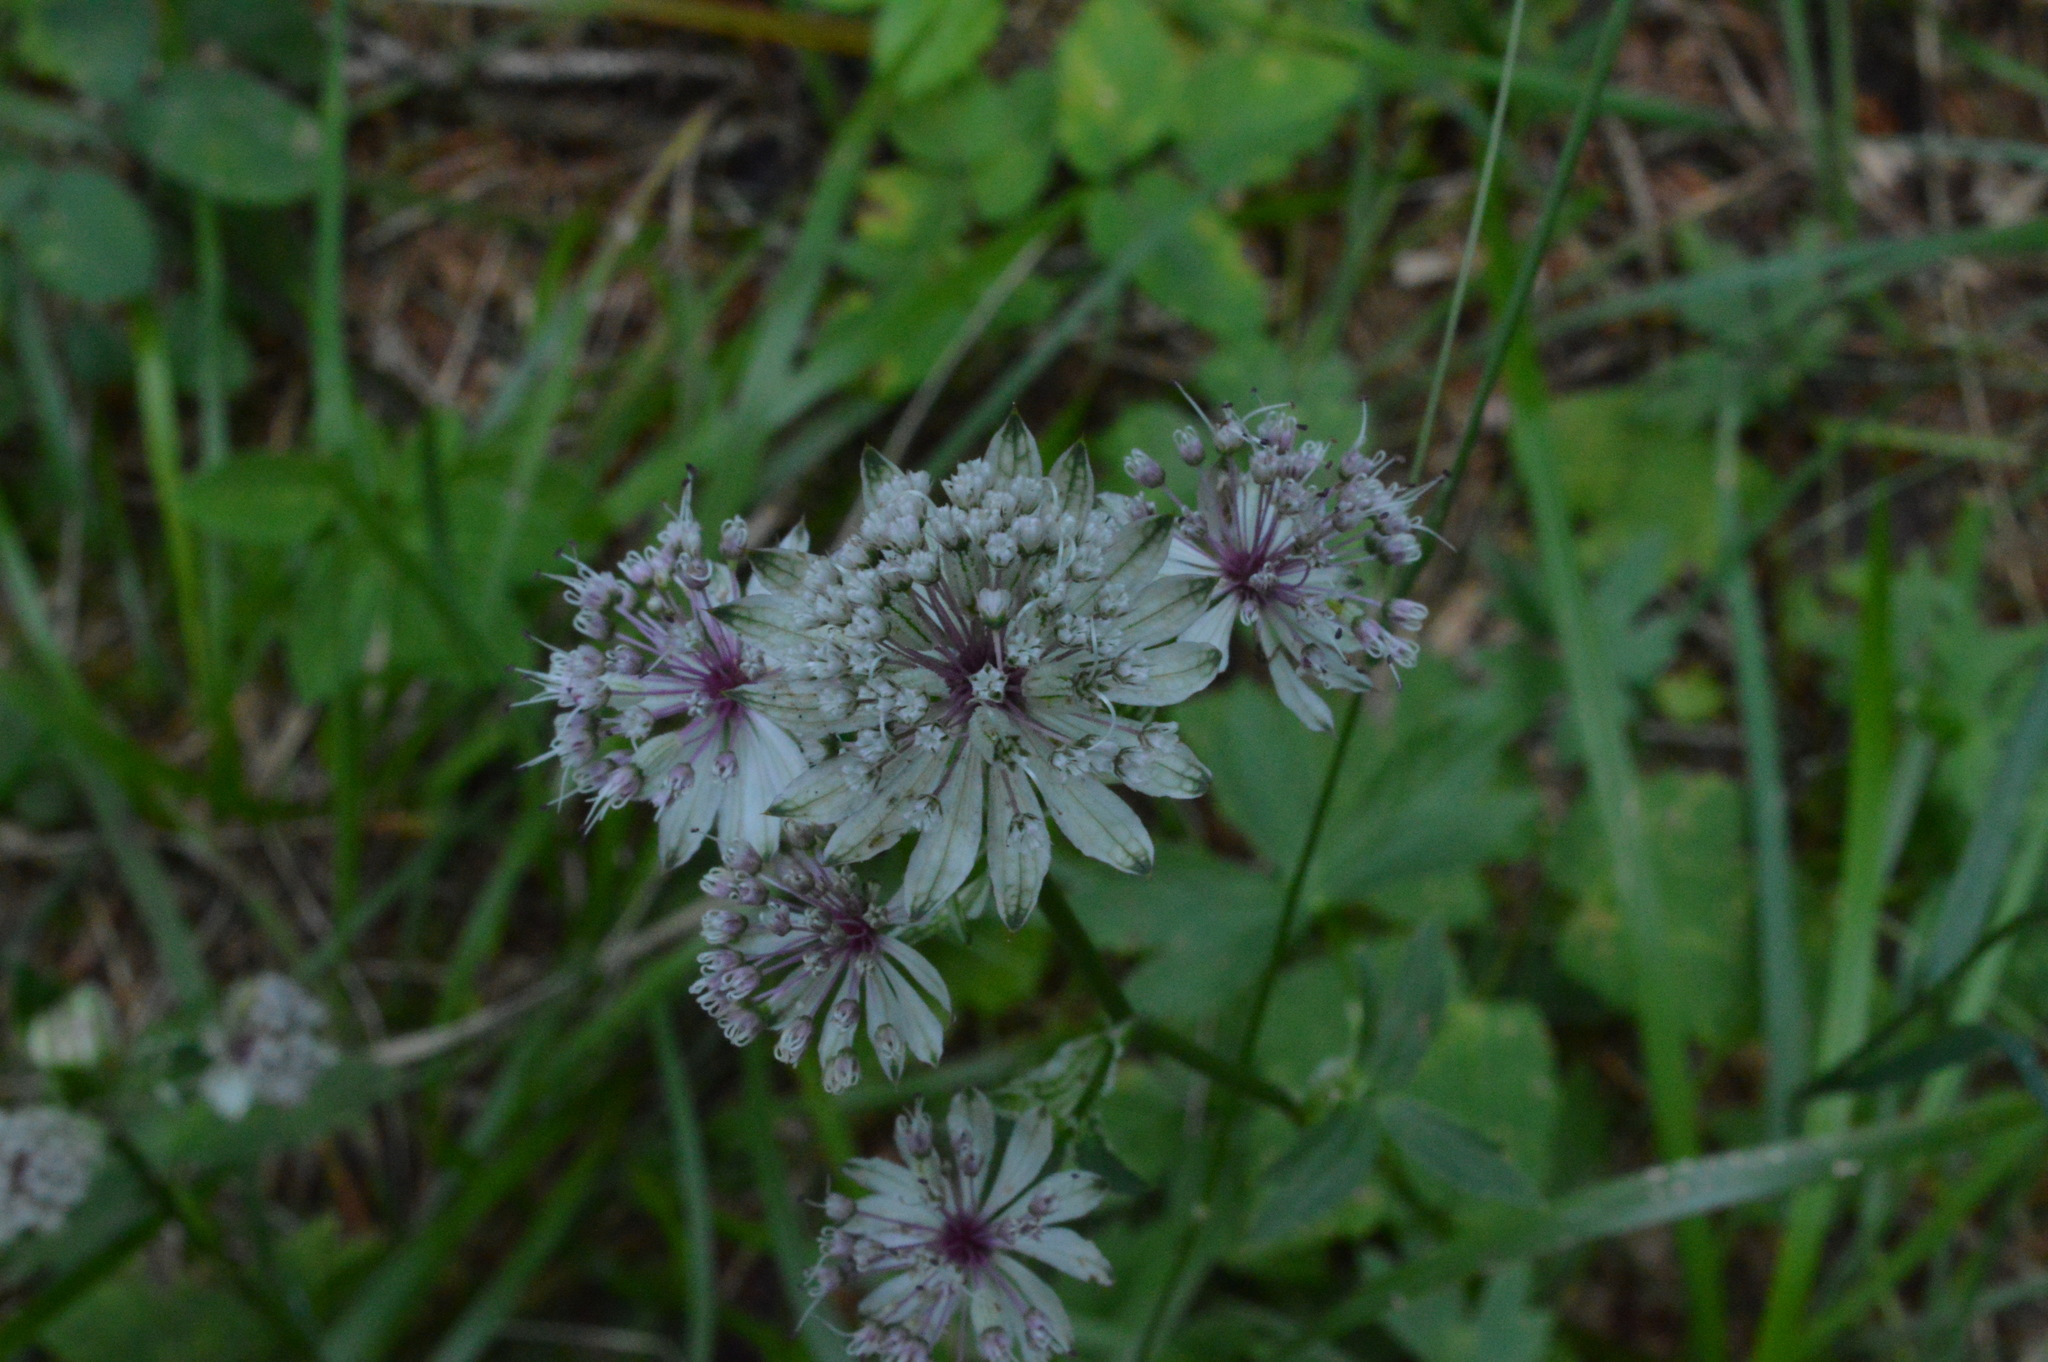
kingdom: Plantae
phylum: Tracheophyta
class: Magnoliopsida
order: Apiales
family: Apiaceae
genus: Astrantia
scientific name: Astrantia major
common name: Greater masterwort
